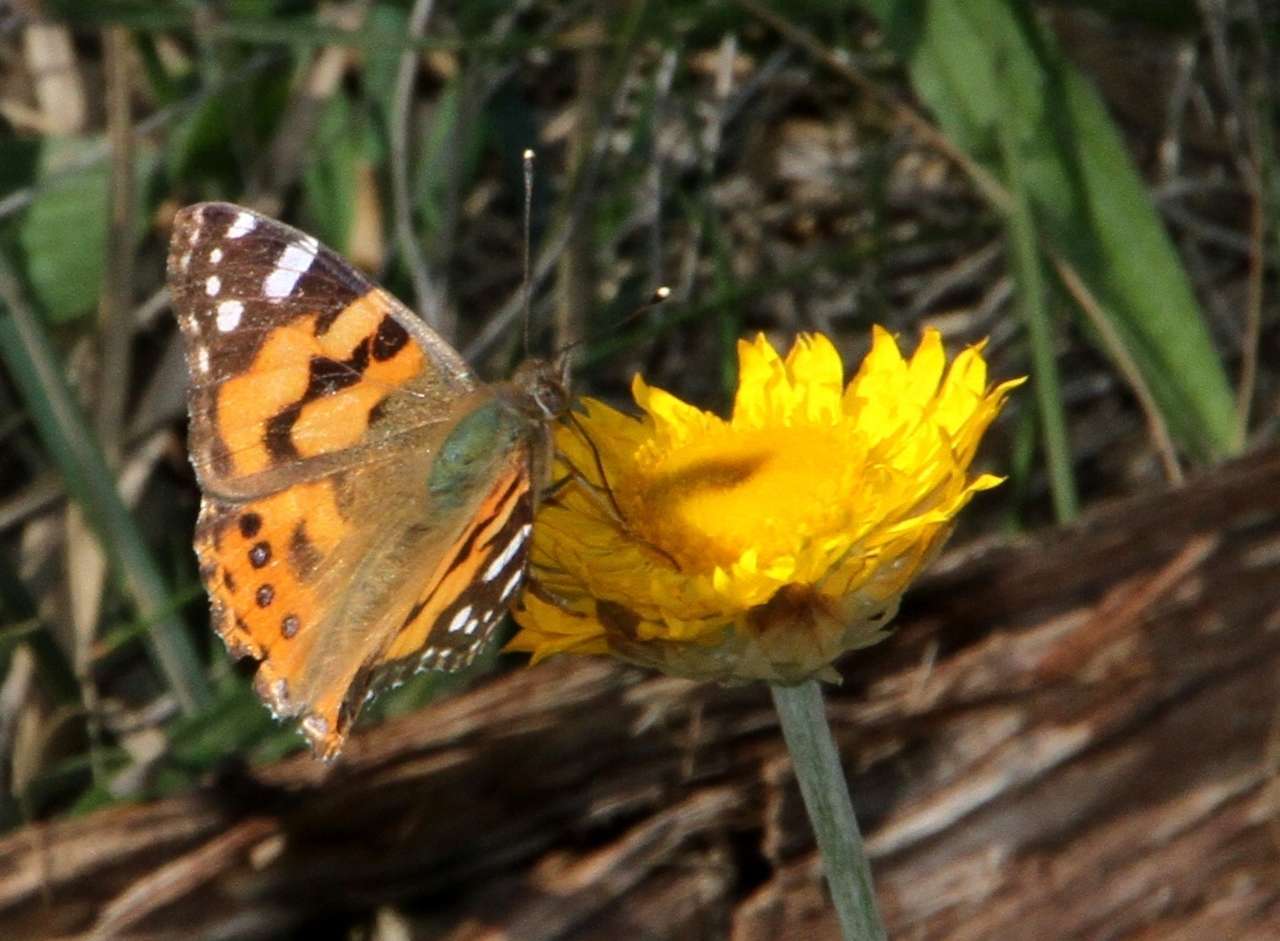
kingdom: Plantae
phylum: Tracheophyta
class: Magnoliopsida
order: Asterales
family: Asteraceae
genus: Leucochrysum
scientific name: Leucochrysum albicans
